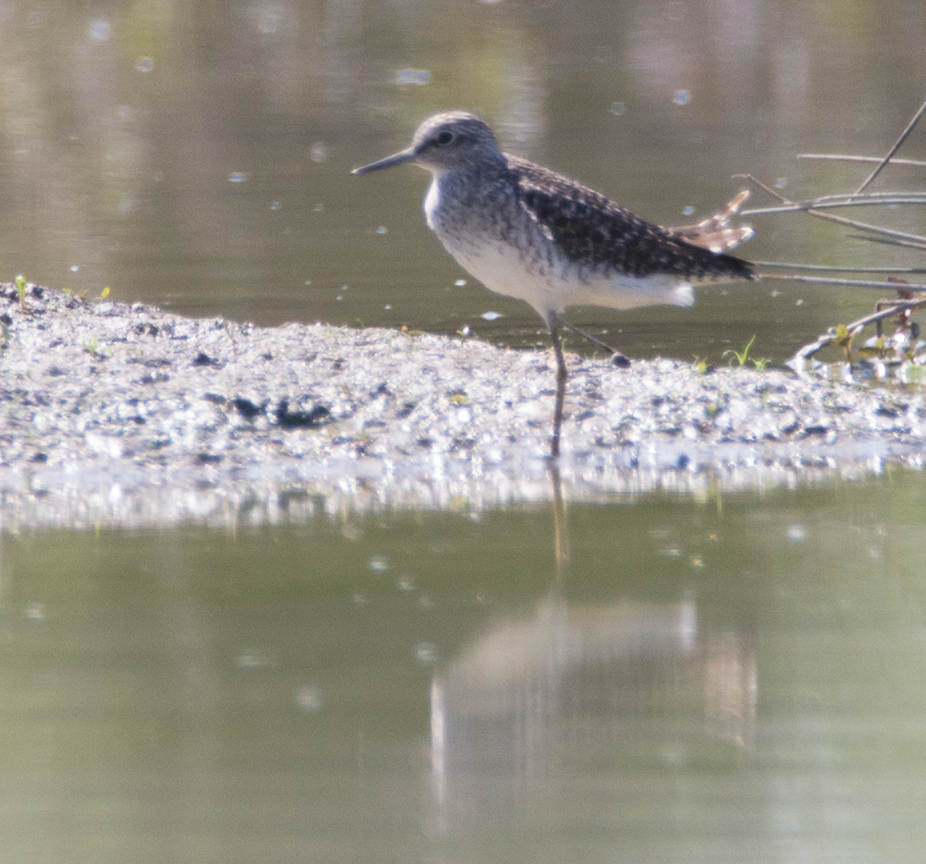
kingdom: Animalia
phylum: Chordata
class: Aves
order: Charadriiformes
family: Scolopacidae
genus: Tringa
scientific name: Tringa glareola
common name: Wood sandpiper
